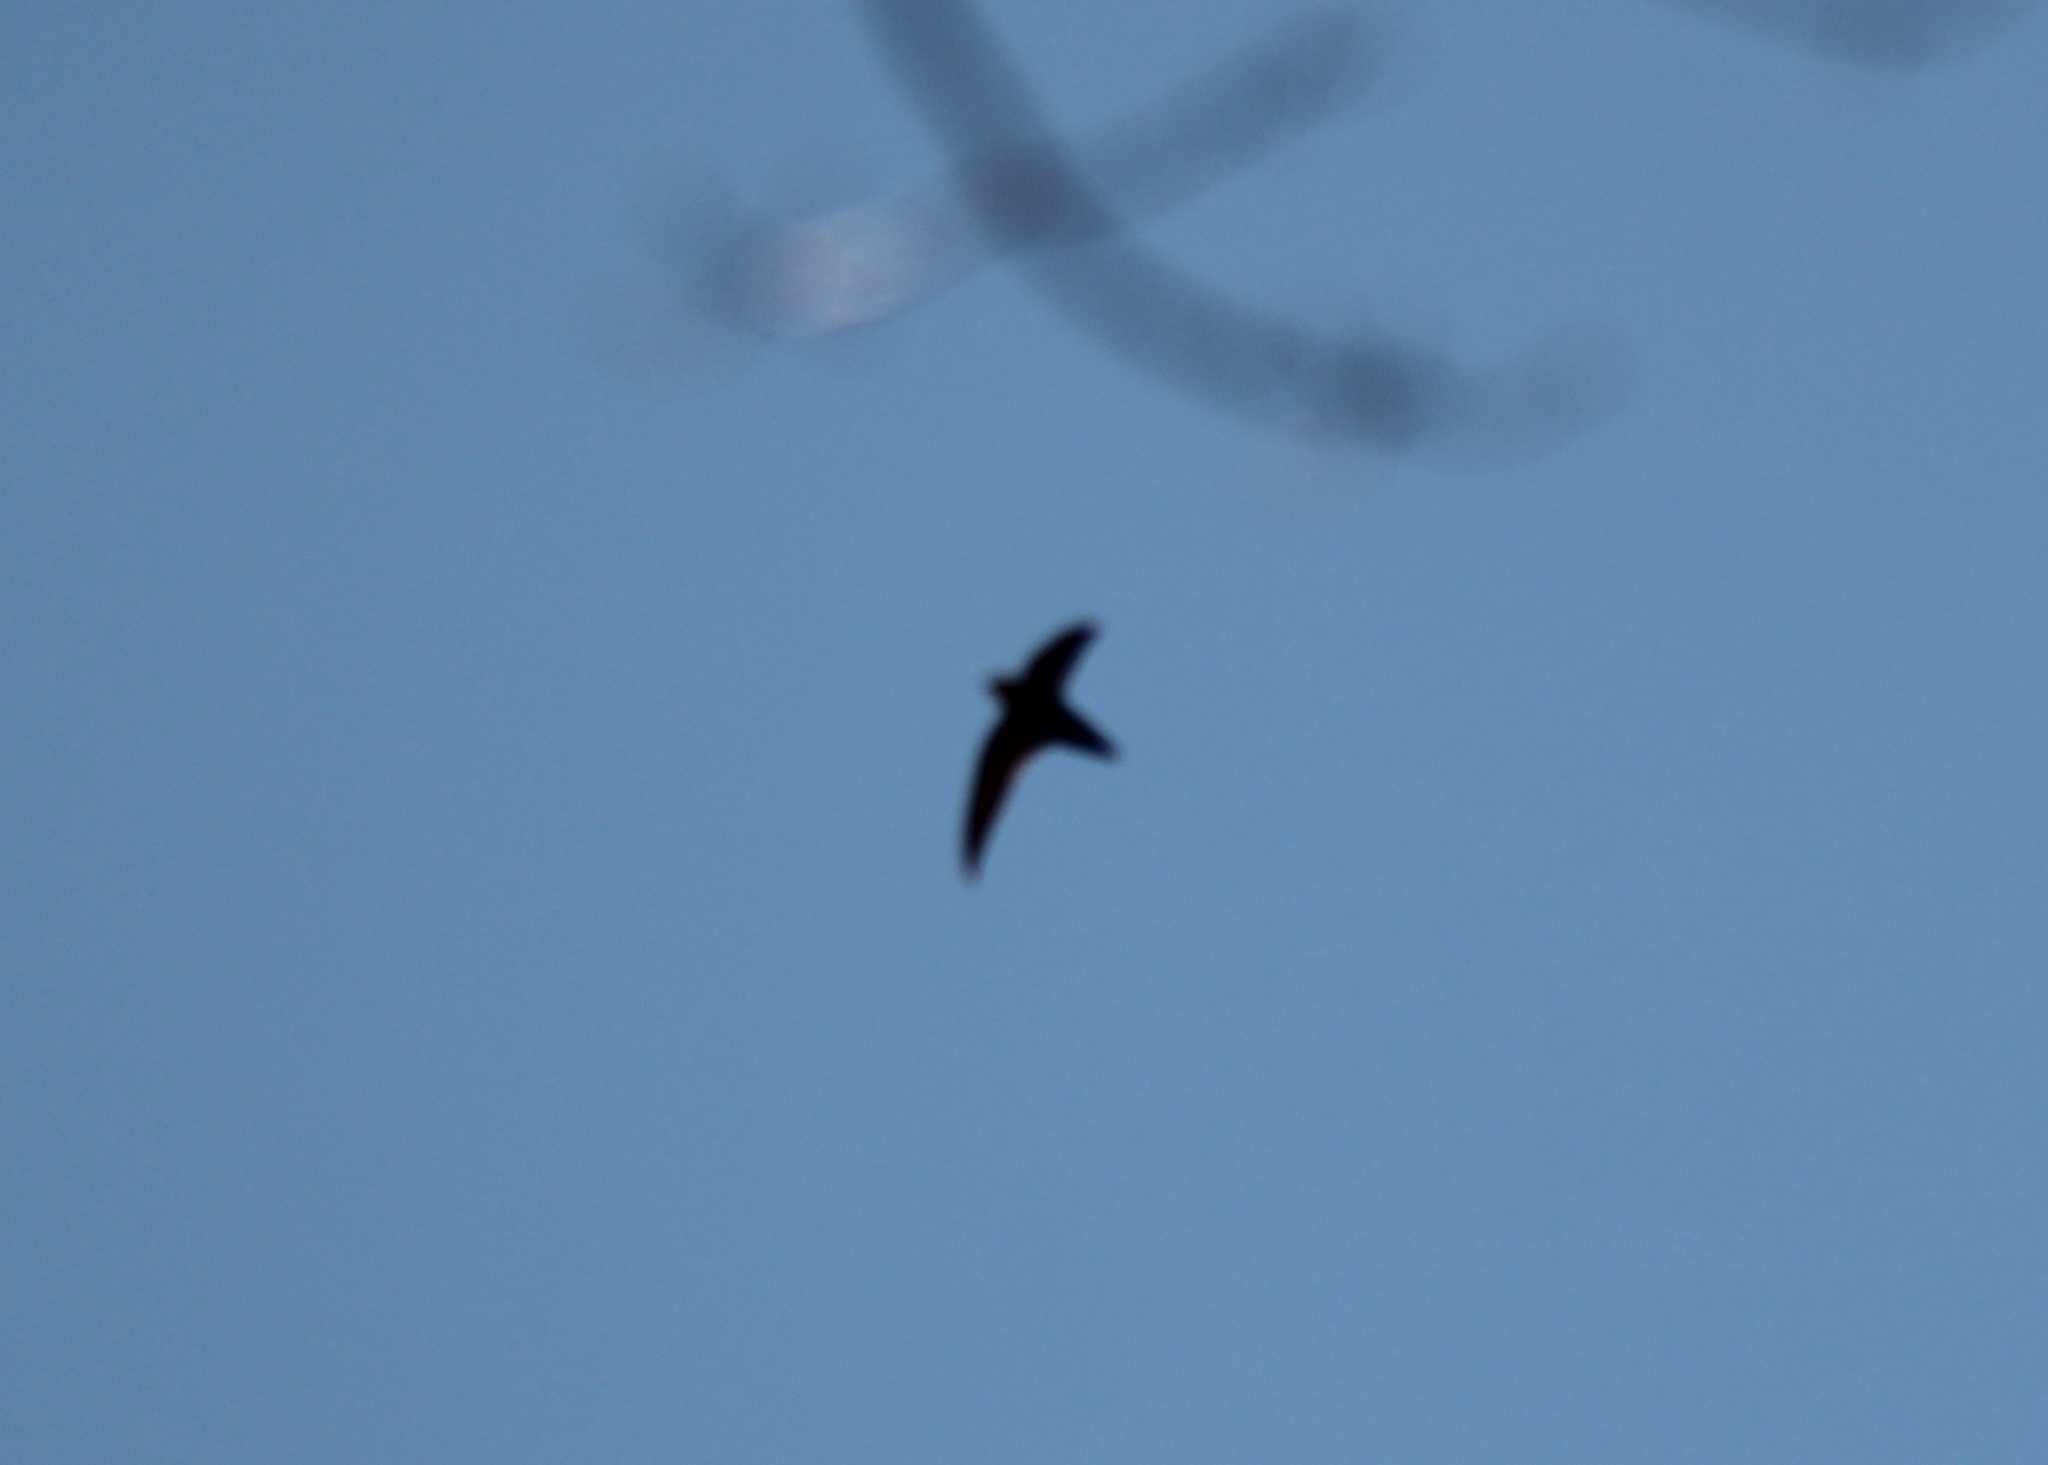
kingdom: Animalia
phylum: Chordata
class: Aves
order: Apodiformes
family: Apodidae
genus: Chaetura
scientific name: Chaetura pelagica
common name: Chimney swift
